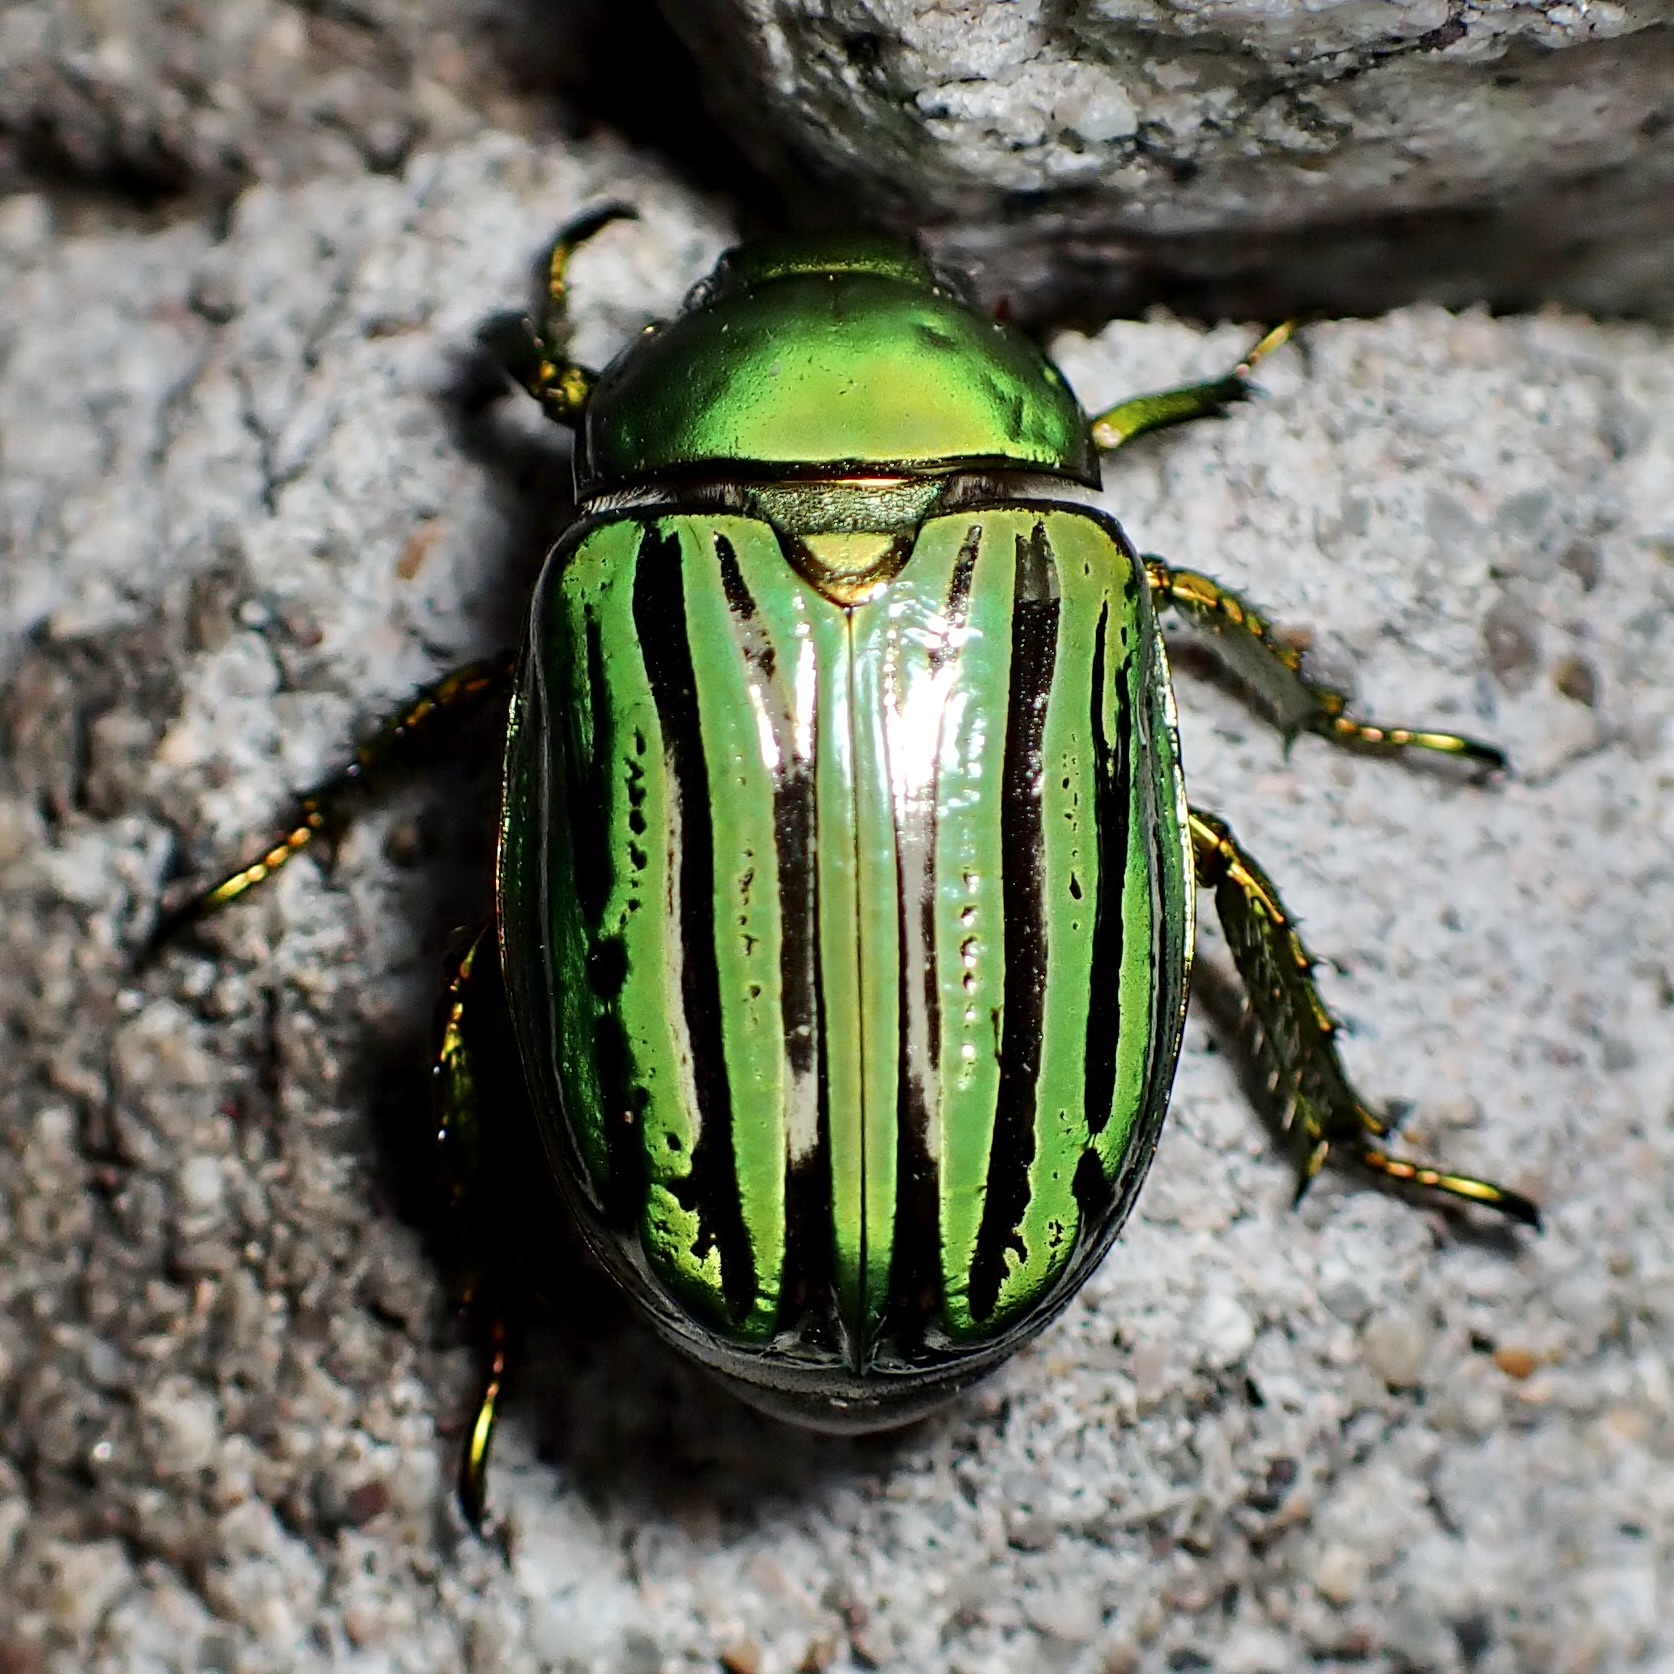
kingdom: Animalia
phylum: Arthropoda
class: Insecta
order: Coleoptera
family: Scarabaeidae
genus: Chrysina
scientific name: Chrysina gloriosa
